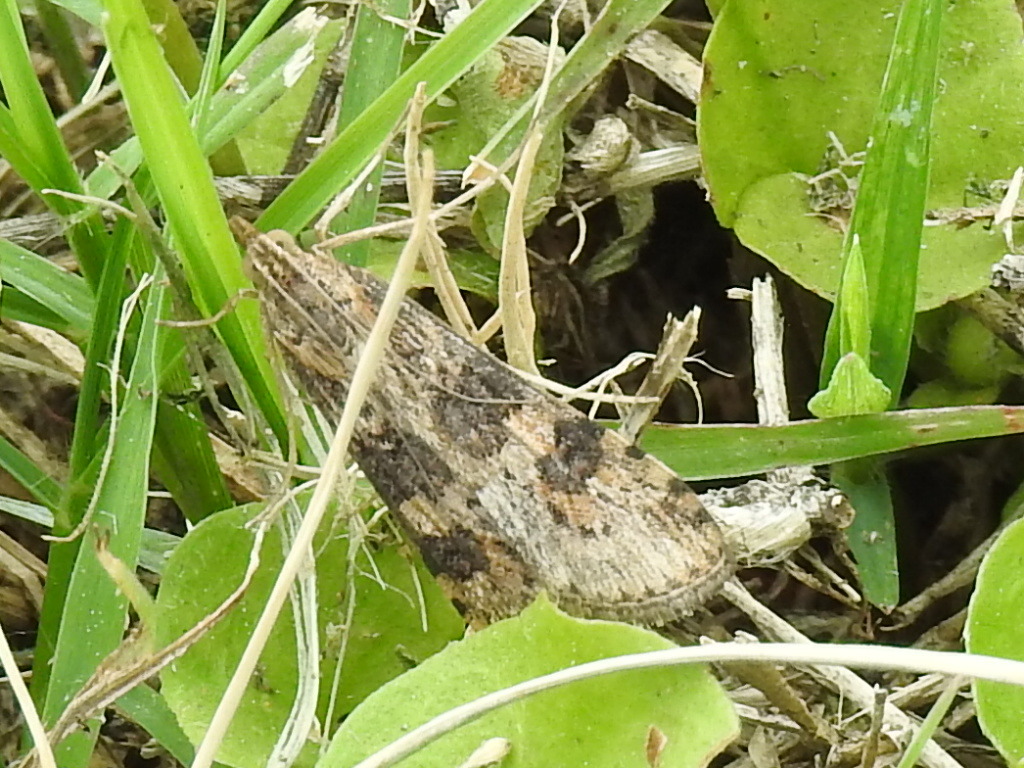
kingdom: Animalia
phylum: Arthropoda
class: Insecta
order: Lepidoptera
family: Crambidae
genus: Nomophila
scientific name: Nomophila nearctica
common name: American rush veneer
